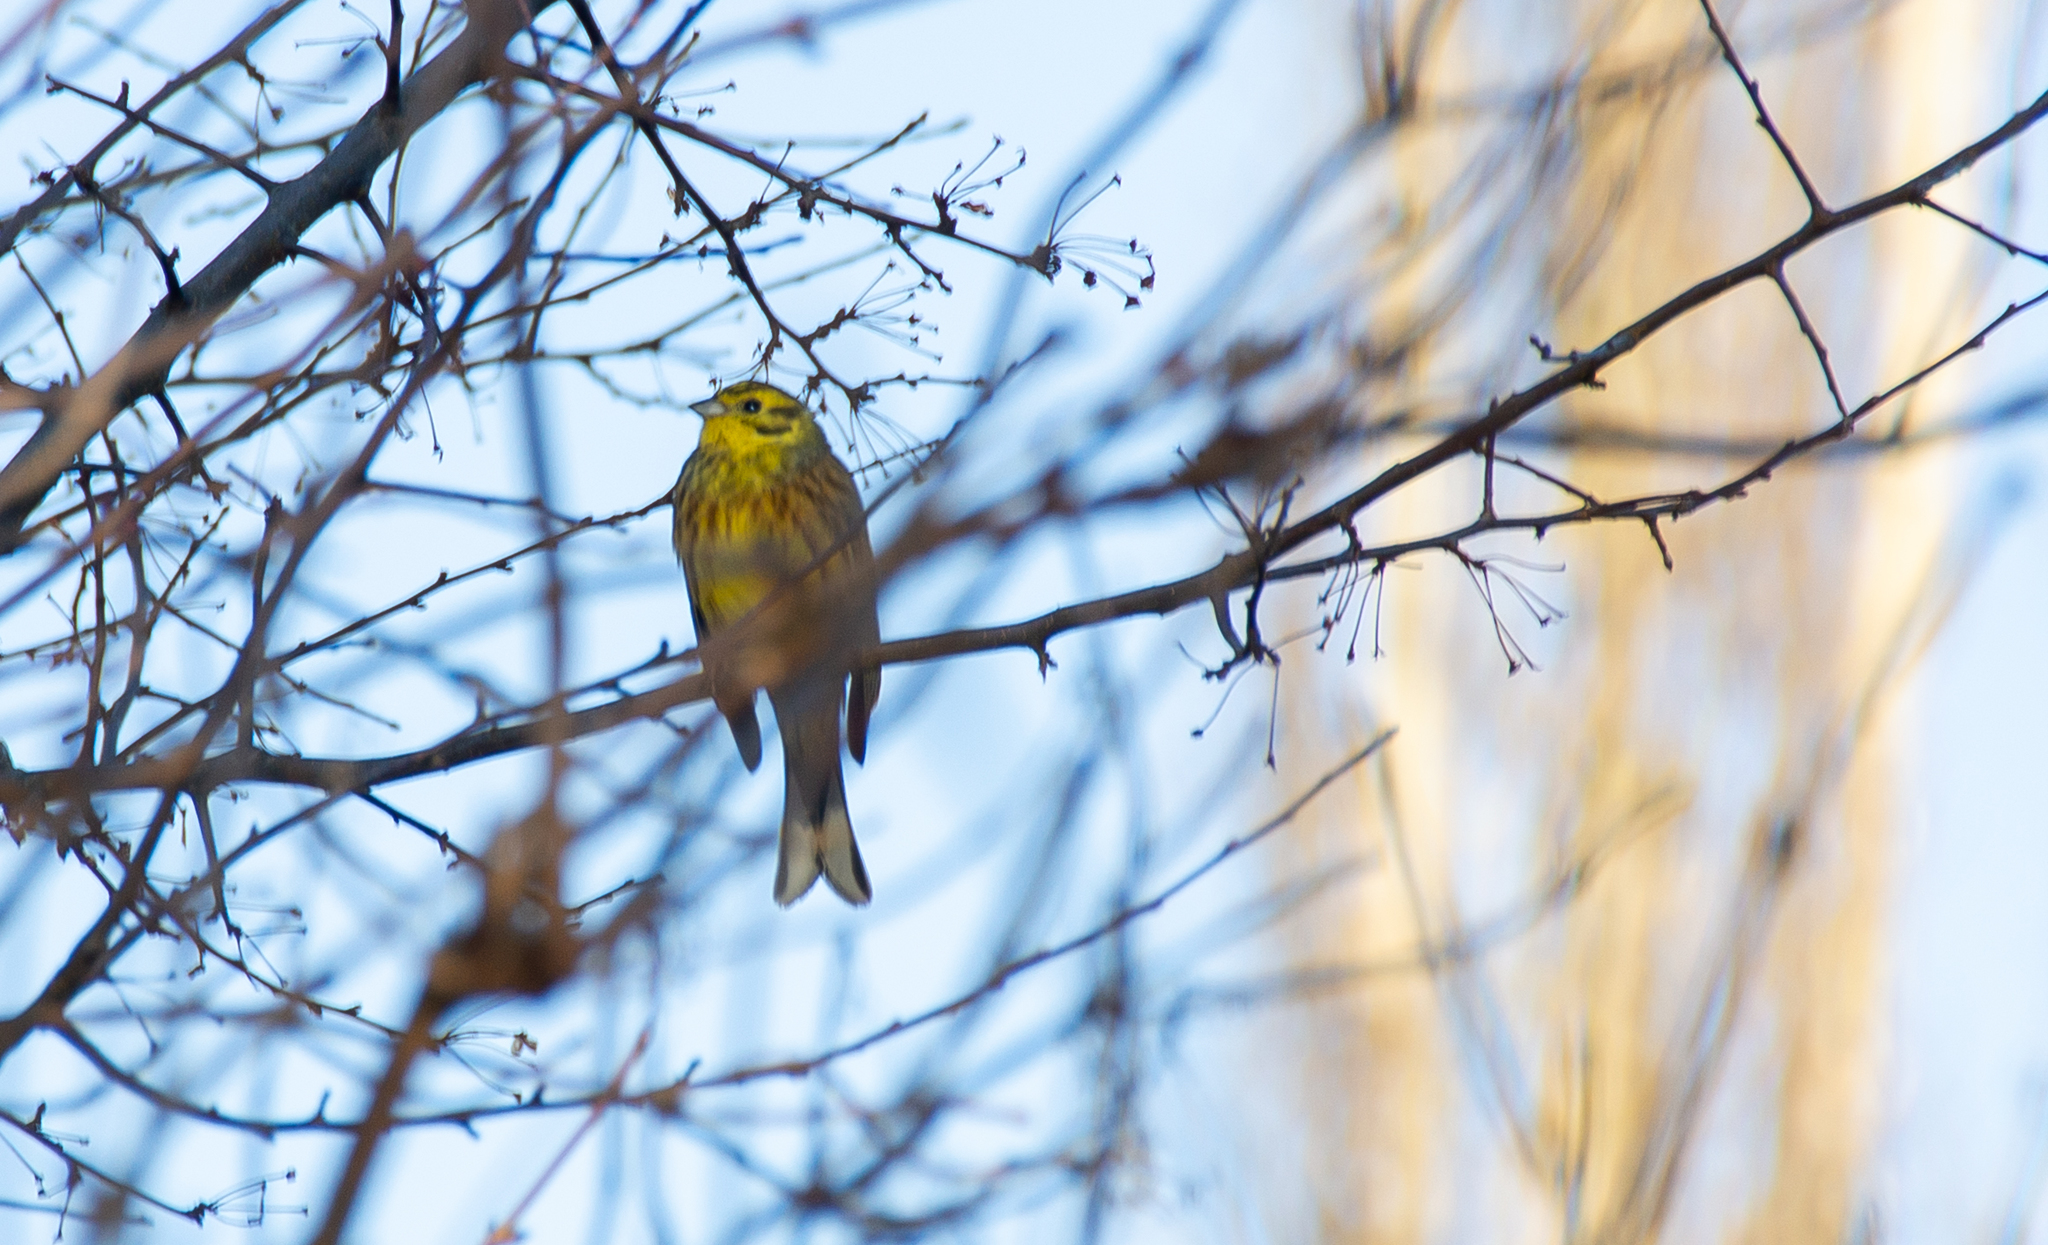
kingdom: Animalia
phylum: Chordata
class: Aves
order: Passeriformes
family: Emberizidae
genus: Emberiza
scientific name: Emberiza citrinella
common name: Yellowhammer
